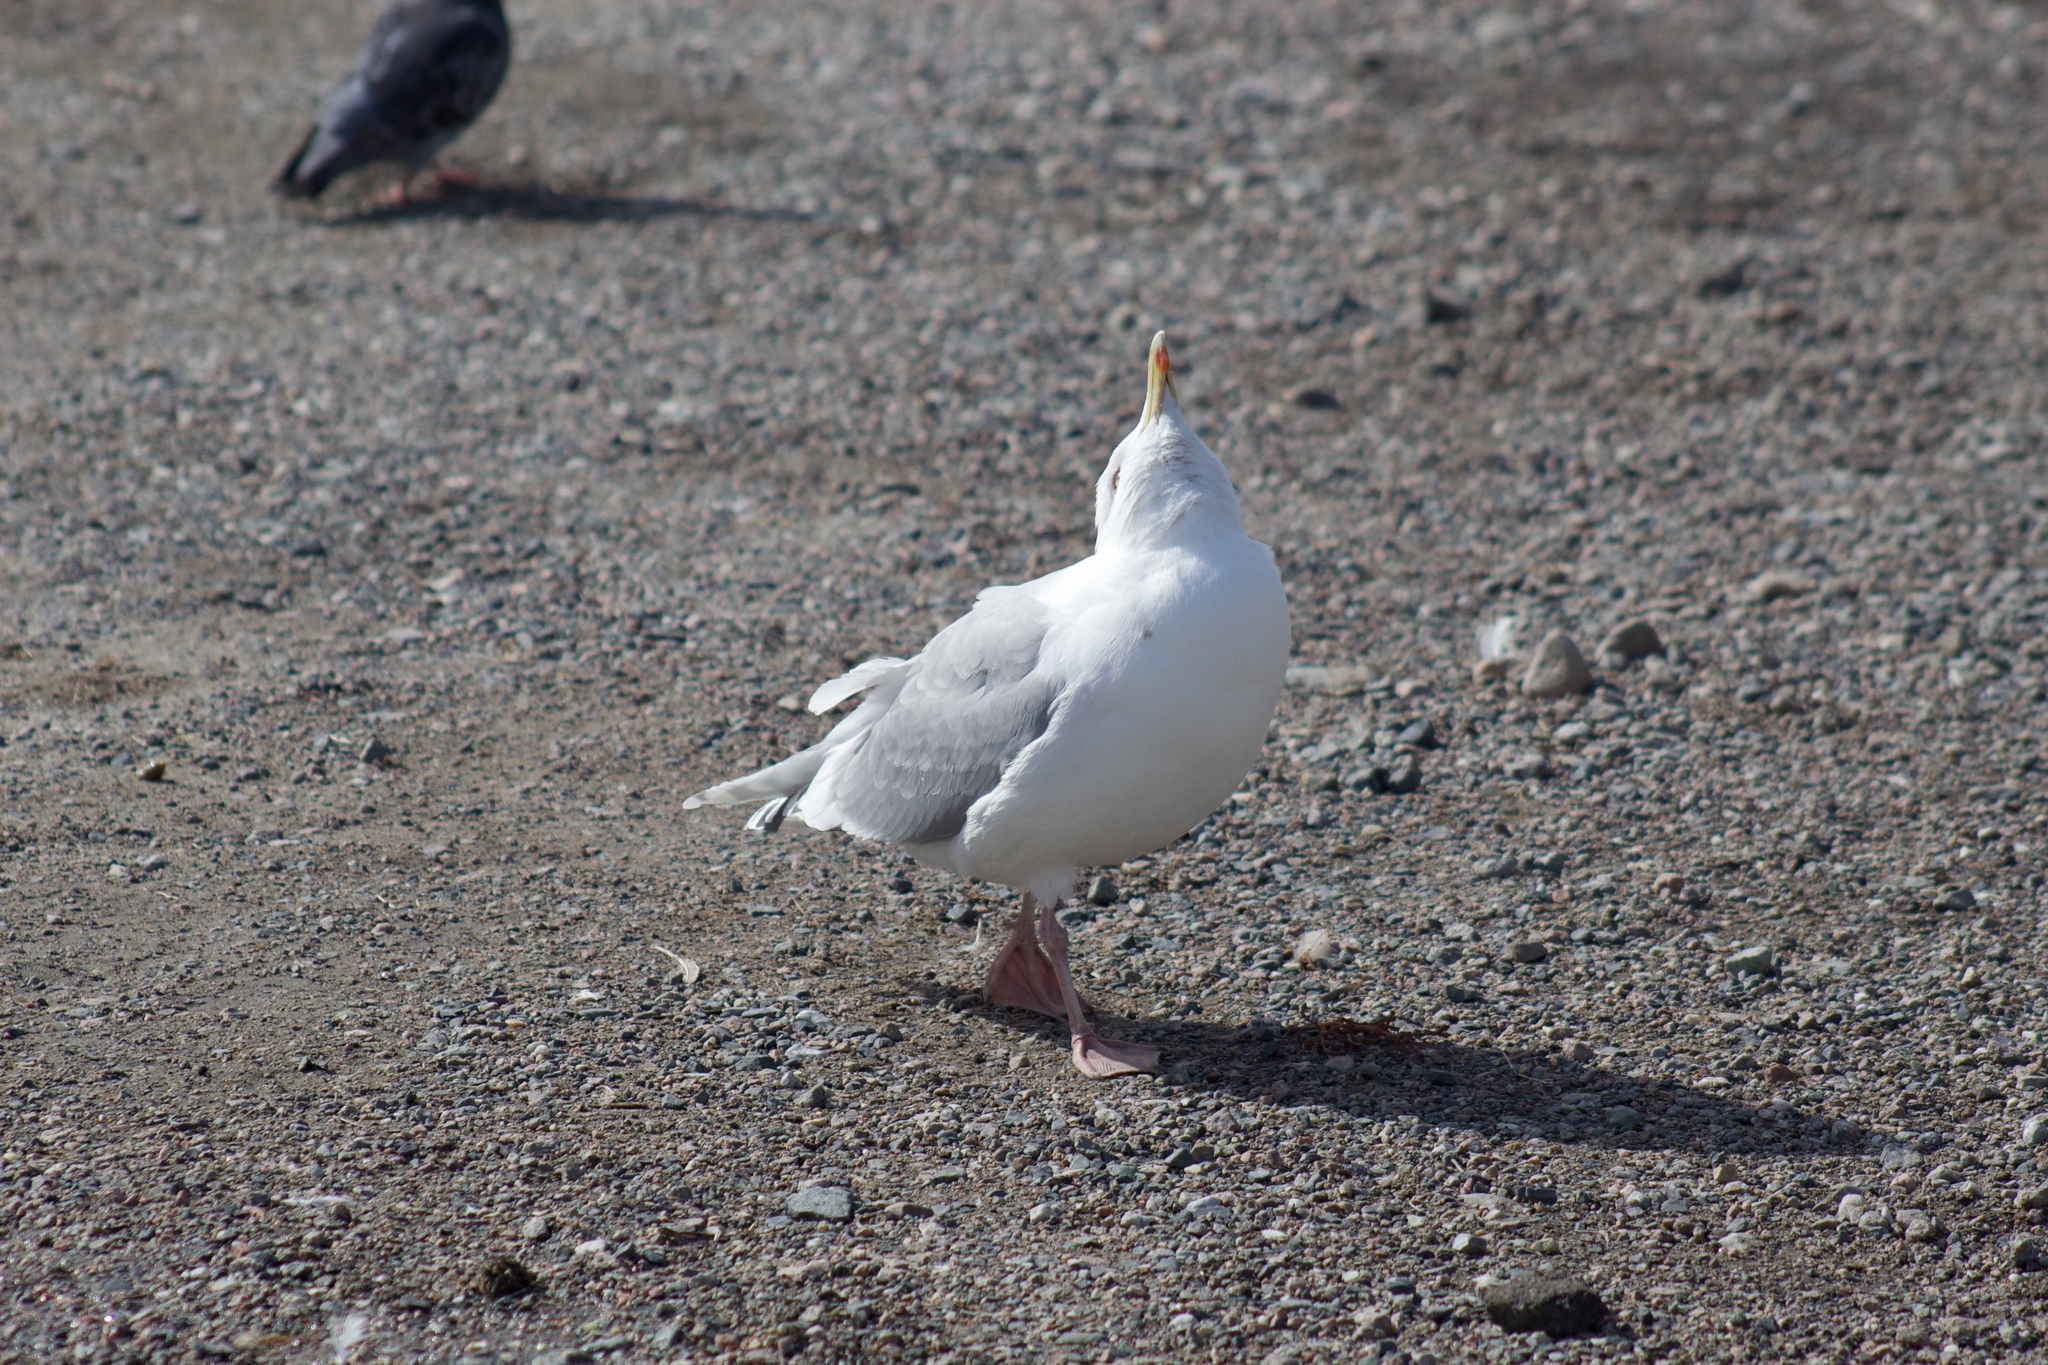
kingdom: Animalia
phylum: Chordata
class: Aves
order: Charadriiformes
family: Laridae
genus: Larus
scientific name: Larus glaucoides
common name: Iceland gull
